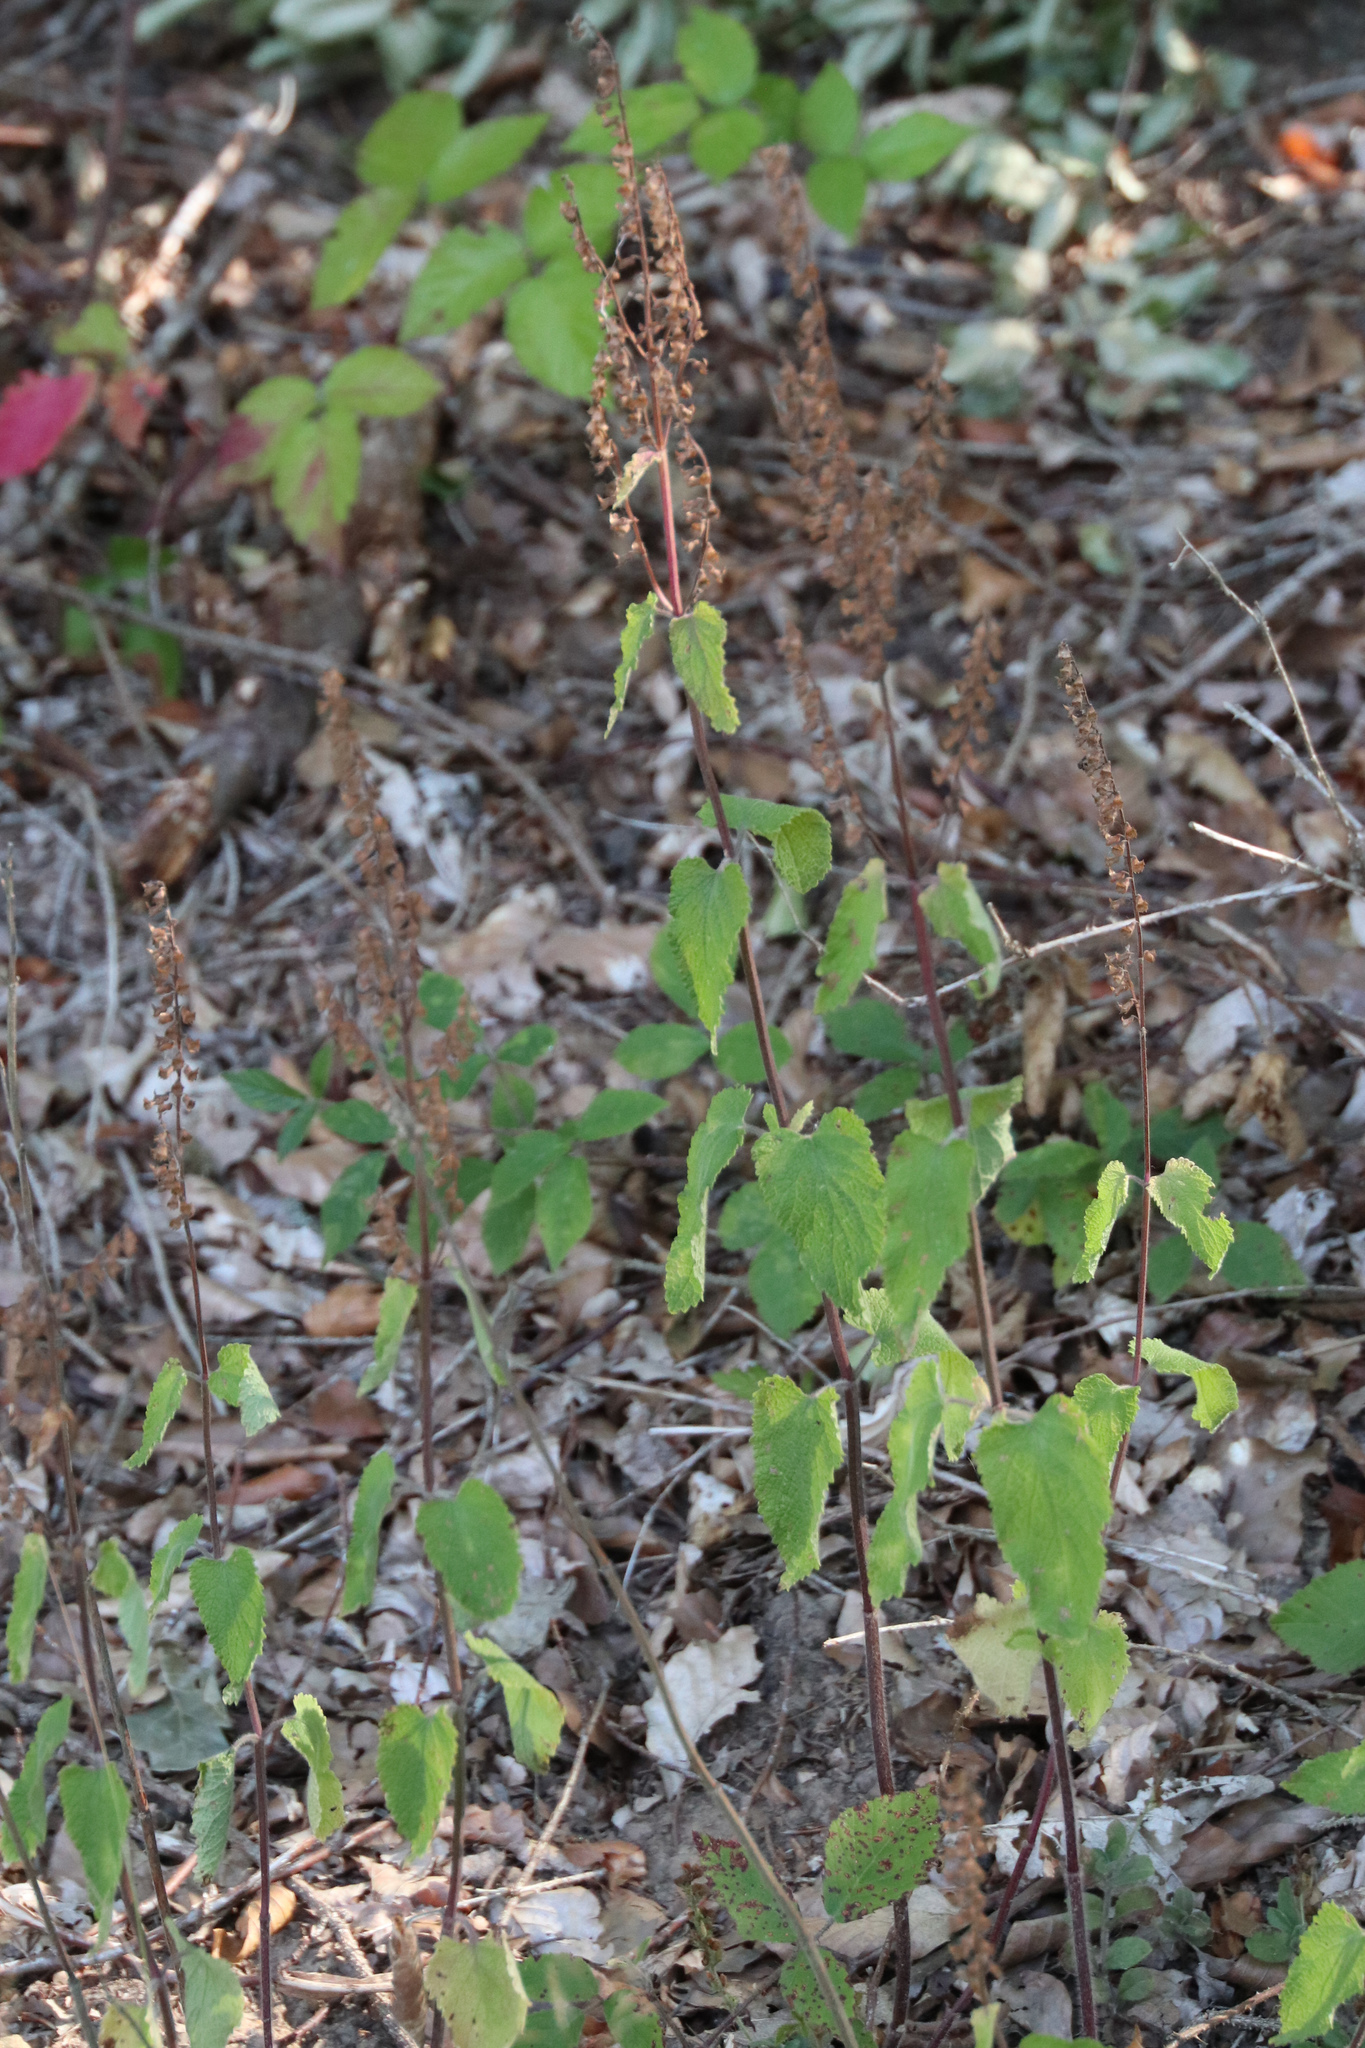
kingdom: Plantae
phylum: Tracheophyta
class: Magnoliopsida
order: Lamiales
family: Lamiaceae
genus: Teucrium
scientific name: Teucrium scorodonia
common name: Woodland germander
